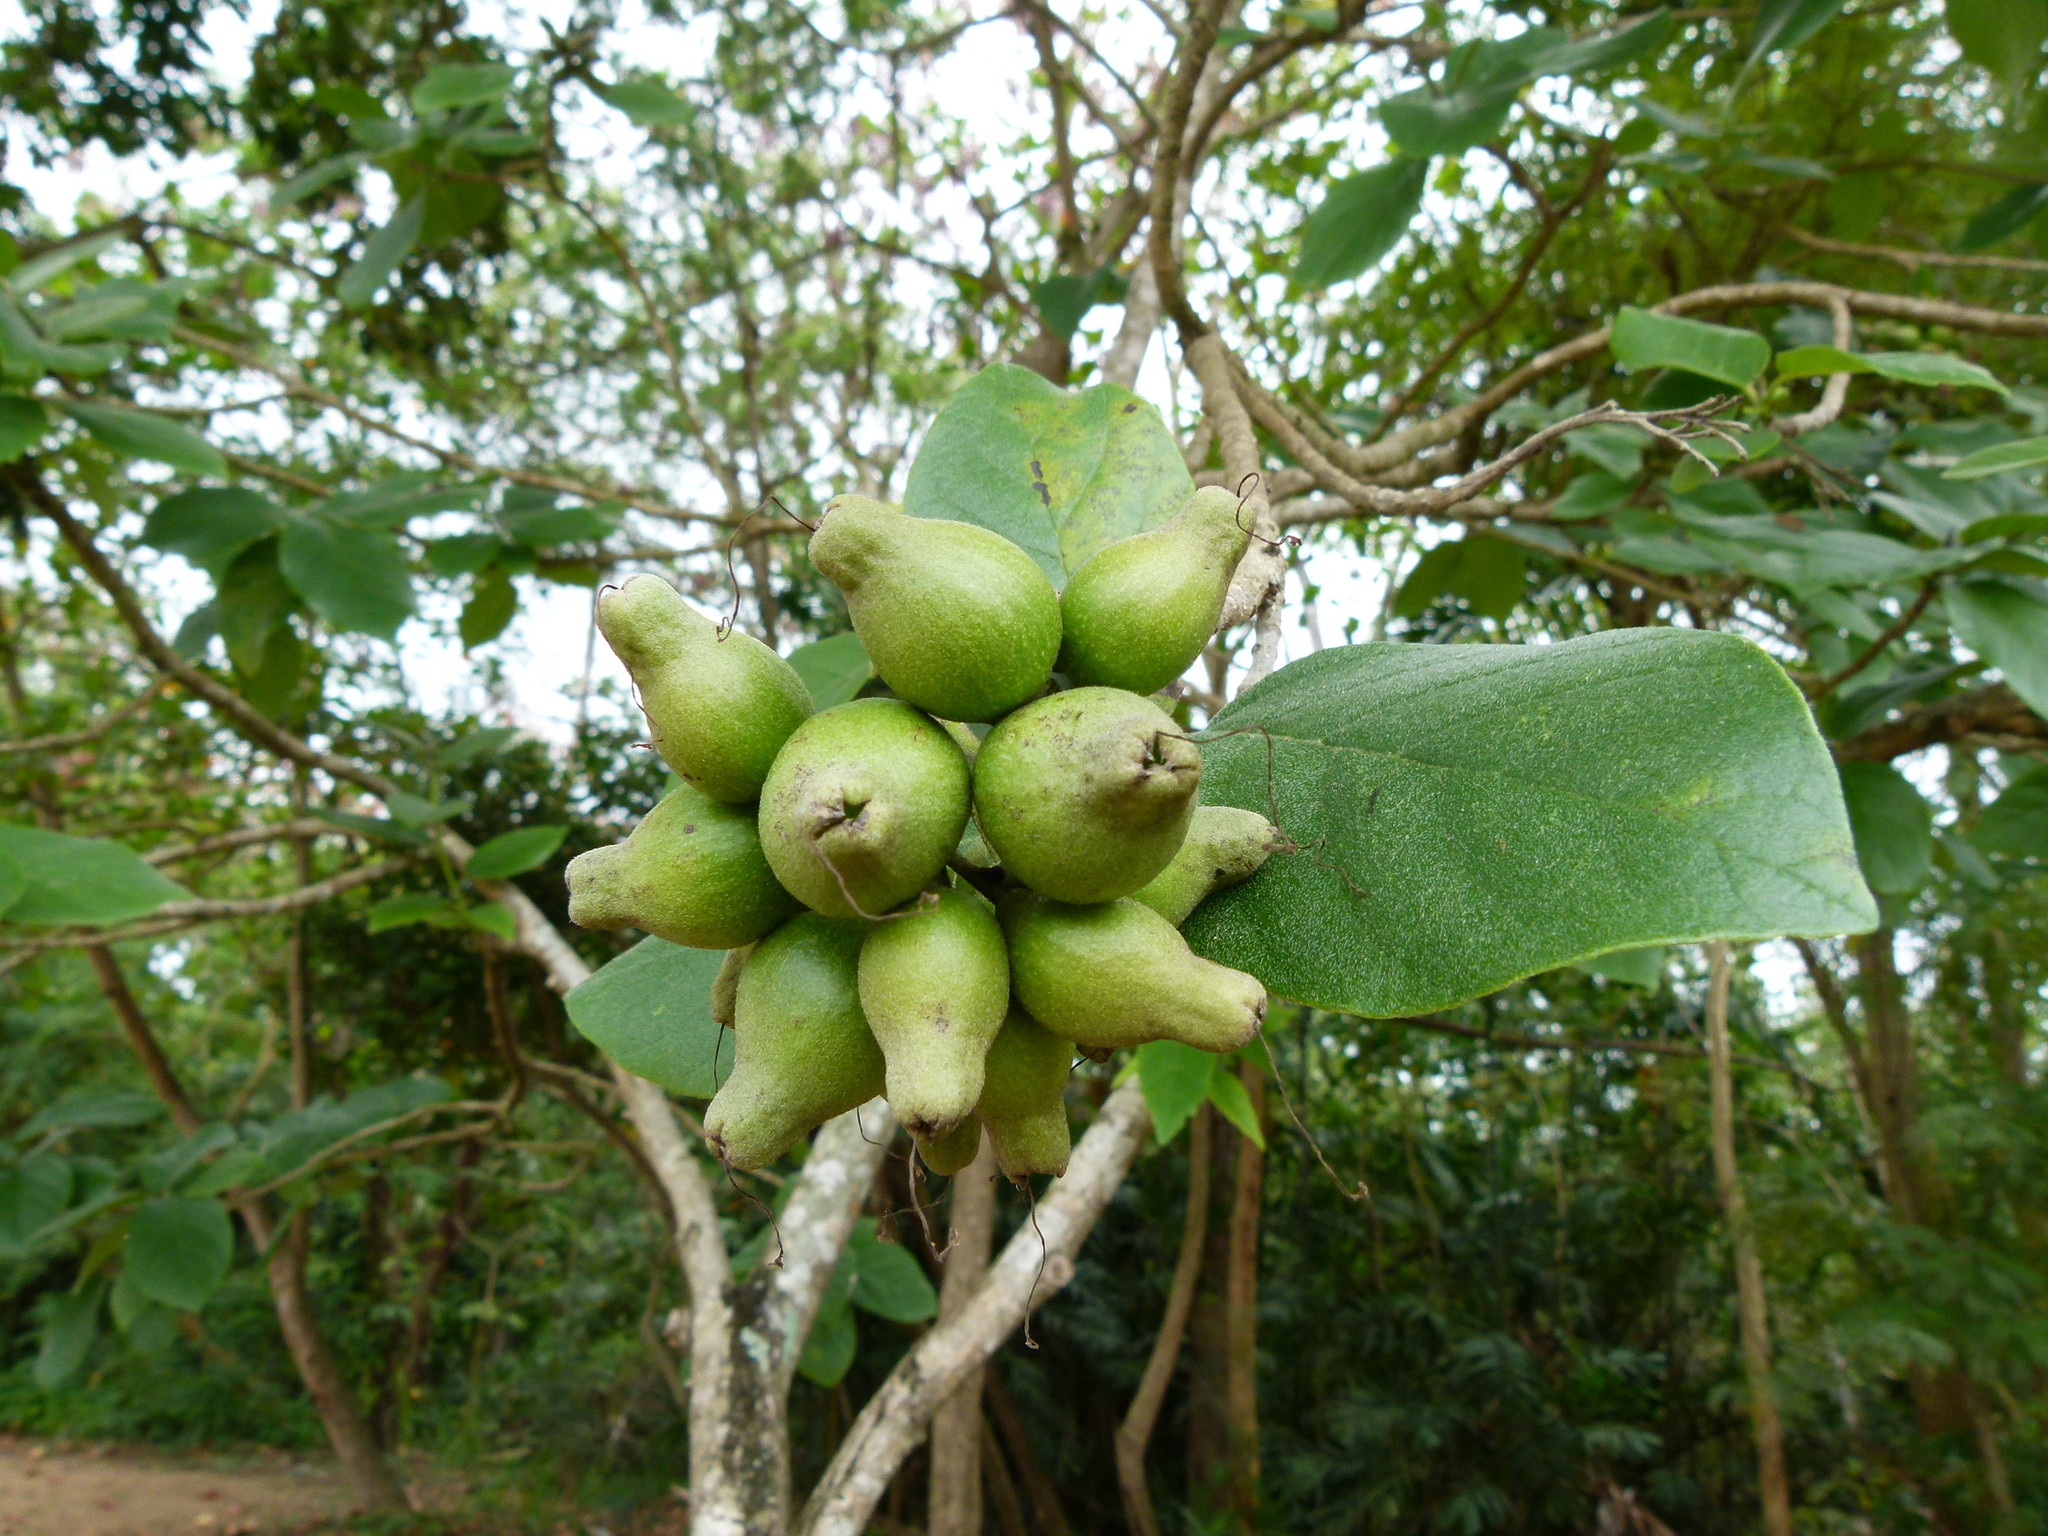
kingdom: Plantae
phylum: Tracheophyta
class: Magnoliopsida
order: Boraginales
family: Cordiaceae
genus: Cordia
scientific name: Cordia sebestena
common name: Largeleaf geigertree
